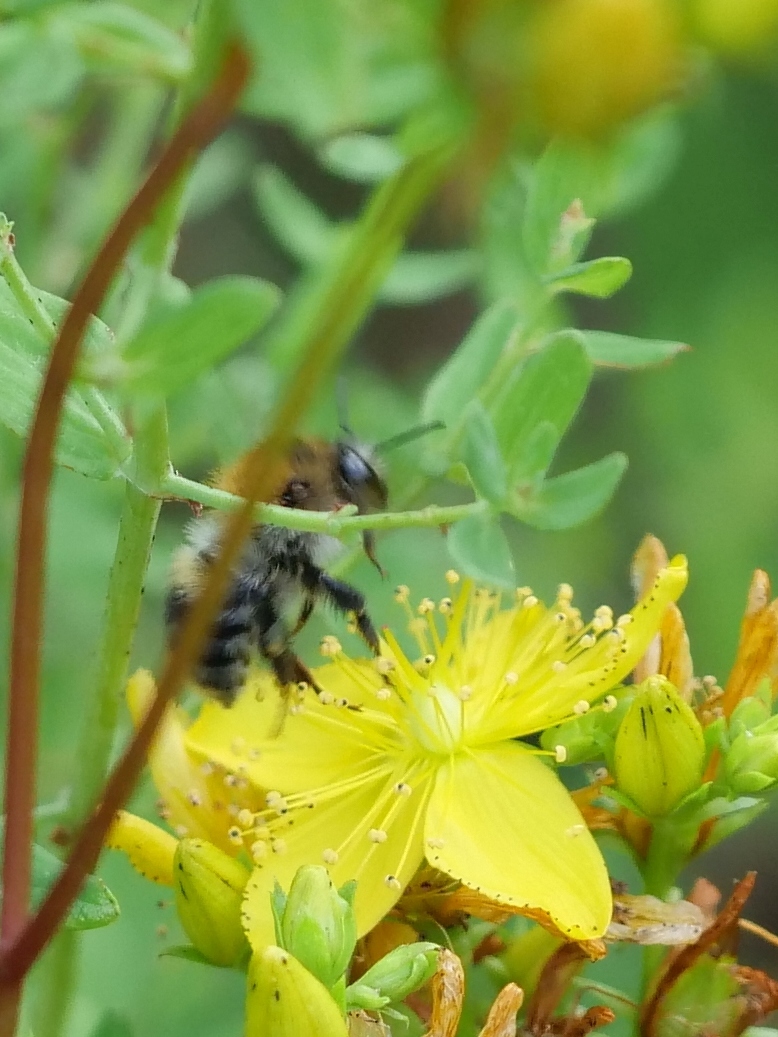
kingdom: Animalia
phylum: Arthropoda
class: Insecta
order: Hymenoptera
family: Apidae
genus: Bombus
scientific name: Bombus pascuorum
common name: Common carder bee
